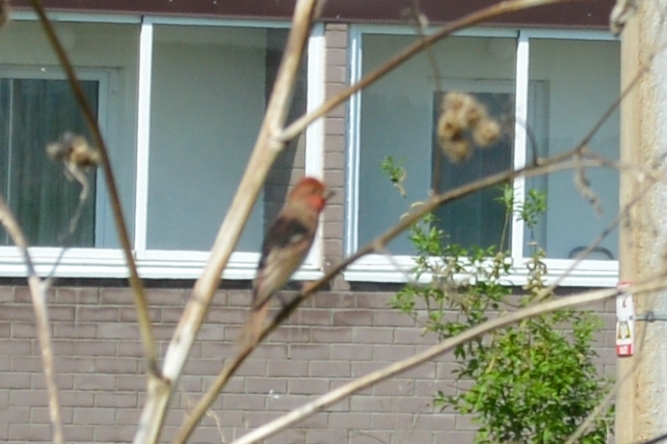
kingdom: Animalia
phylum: Chordata
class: Aves
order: Passeriformes
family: Fringillidae
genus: Carpodacus
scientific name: Carpodacus erythrinus
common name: Common rosefinch
